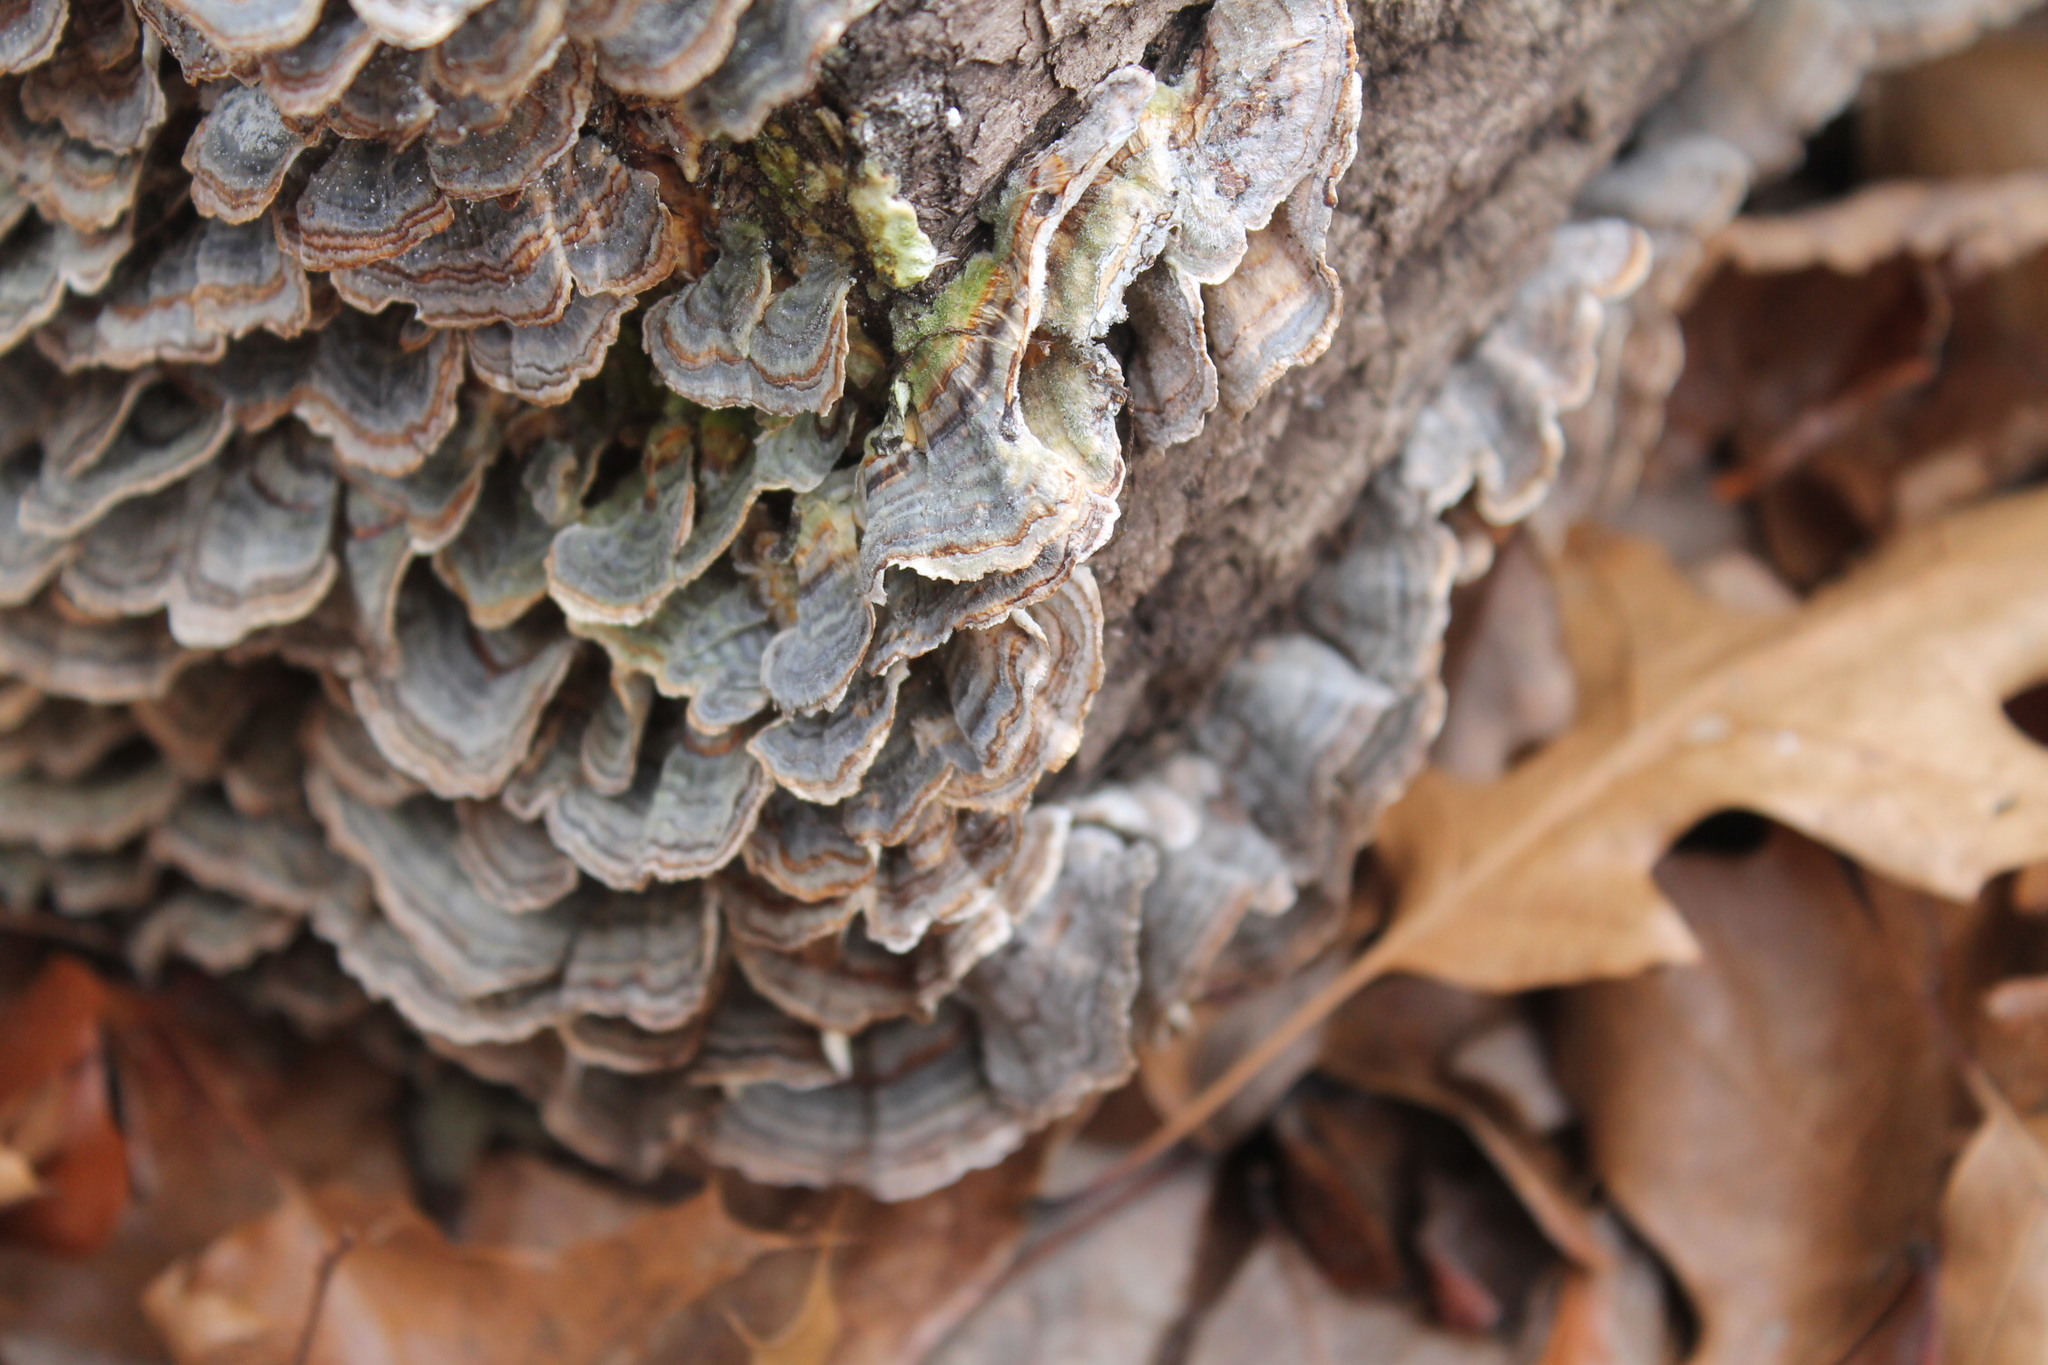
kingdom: Fungi
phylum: Basidiomycota
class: Agaricomycetes
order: Polyporales
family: Polyporaceae
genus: Trametes
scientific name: Trametes versicolor
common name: Turkeytail
